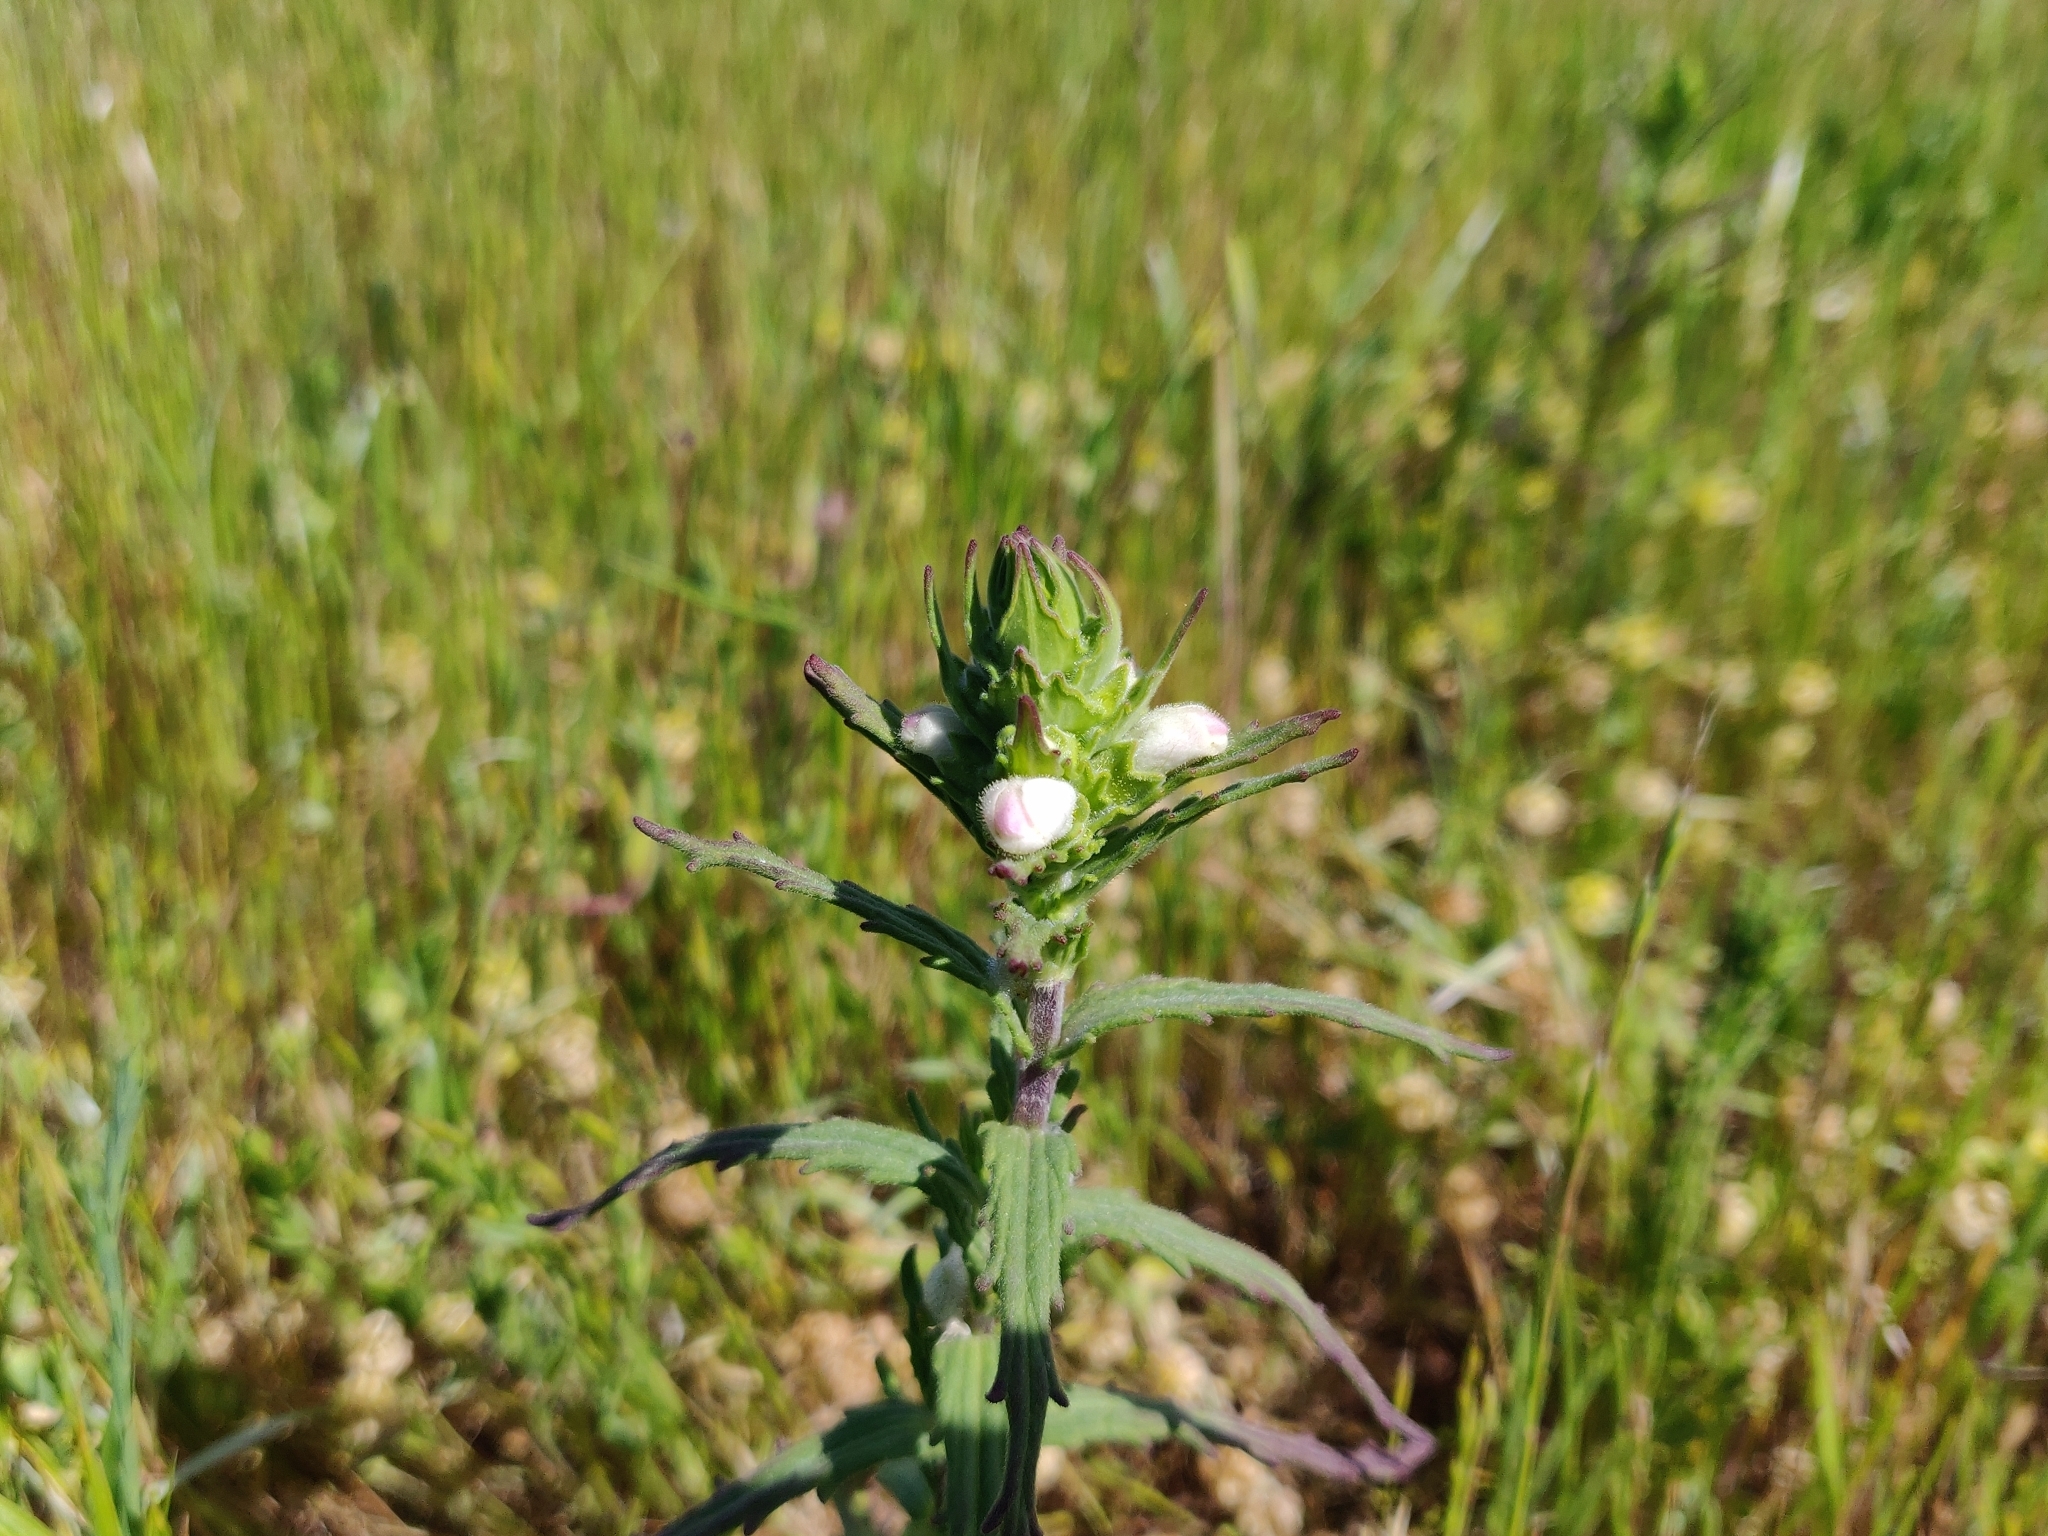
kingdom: Plantae
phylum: Tracheophyta
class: Magnoliopsida
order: Lamiales
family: Orobanchaceae
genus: Bellardia
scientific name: Bellardia trixago
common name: Mediterranean lineseed
